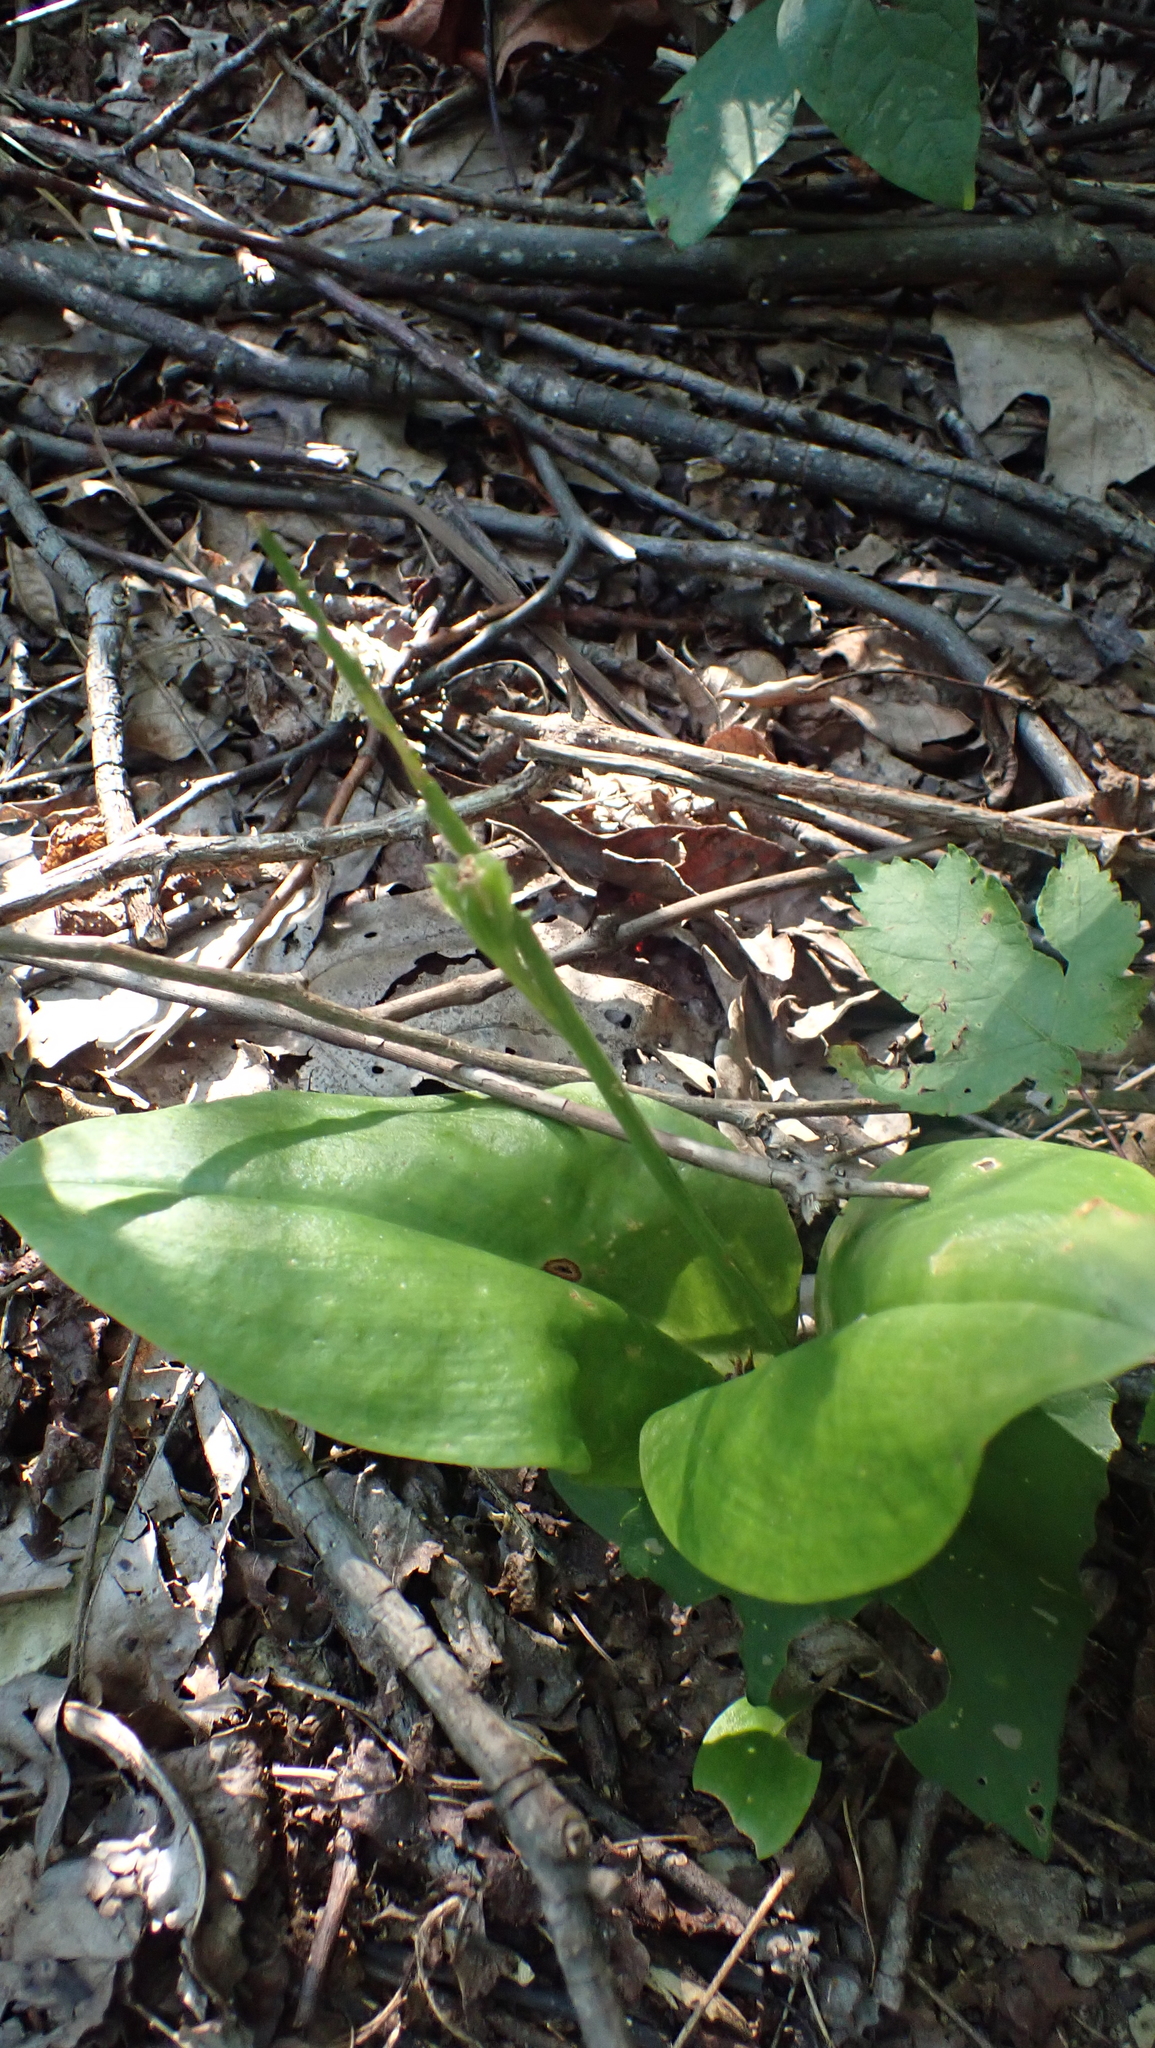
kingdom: Plantae
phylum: Tracheophyta
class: Liliopsida
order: Asparagales
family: Orchidaceae
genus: Liparis
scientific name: Liparis liliifolia
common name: Brown wide-lip orchid
